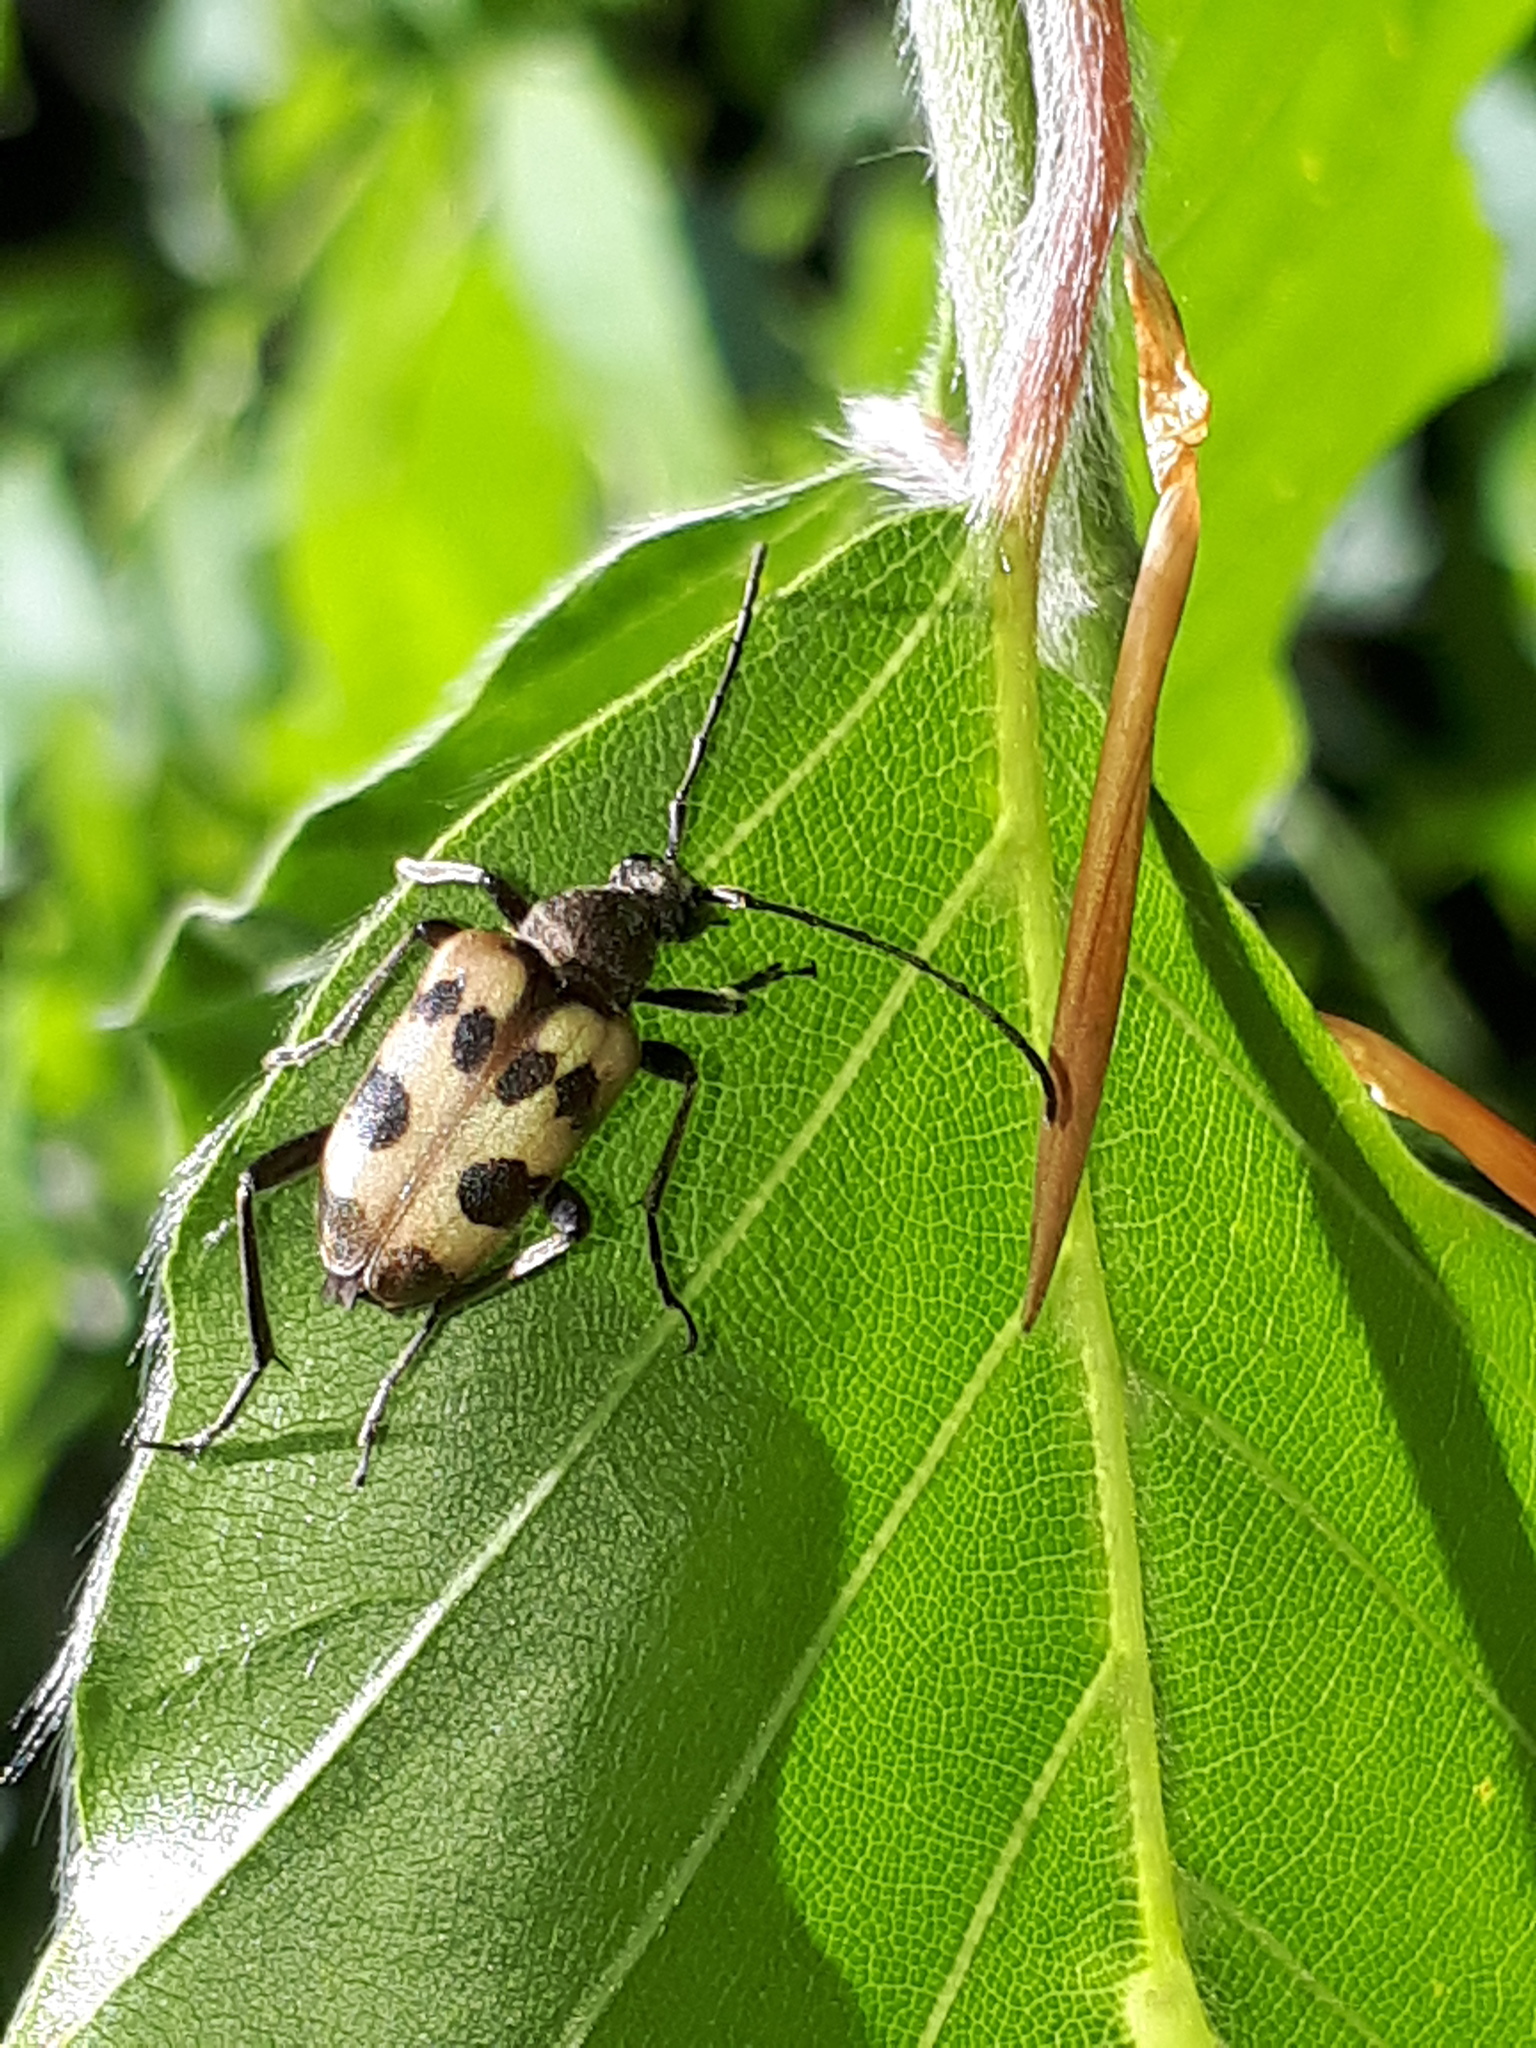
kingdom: Animalia
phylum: Arthropoda
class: Insecta
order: Coleoptera
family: Cerambycidae
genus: Pachytodes
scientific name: Pachytodes cerambyciformis
